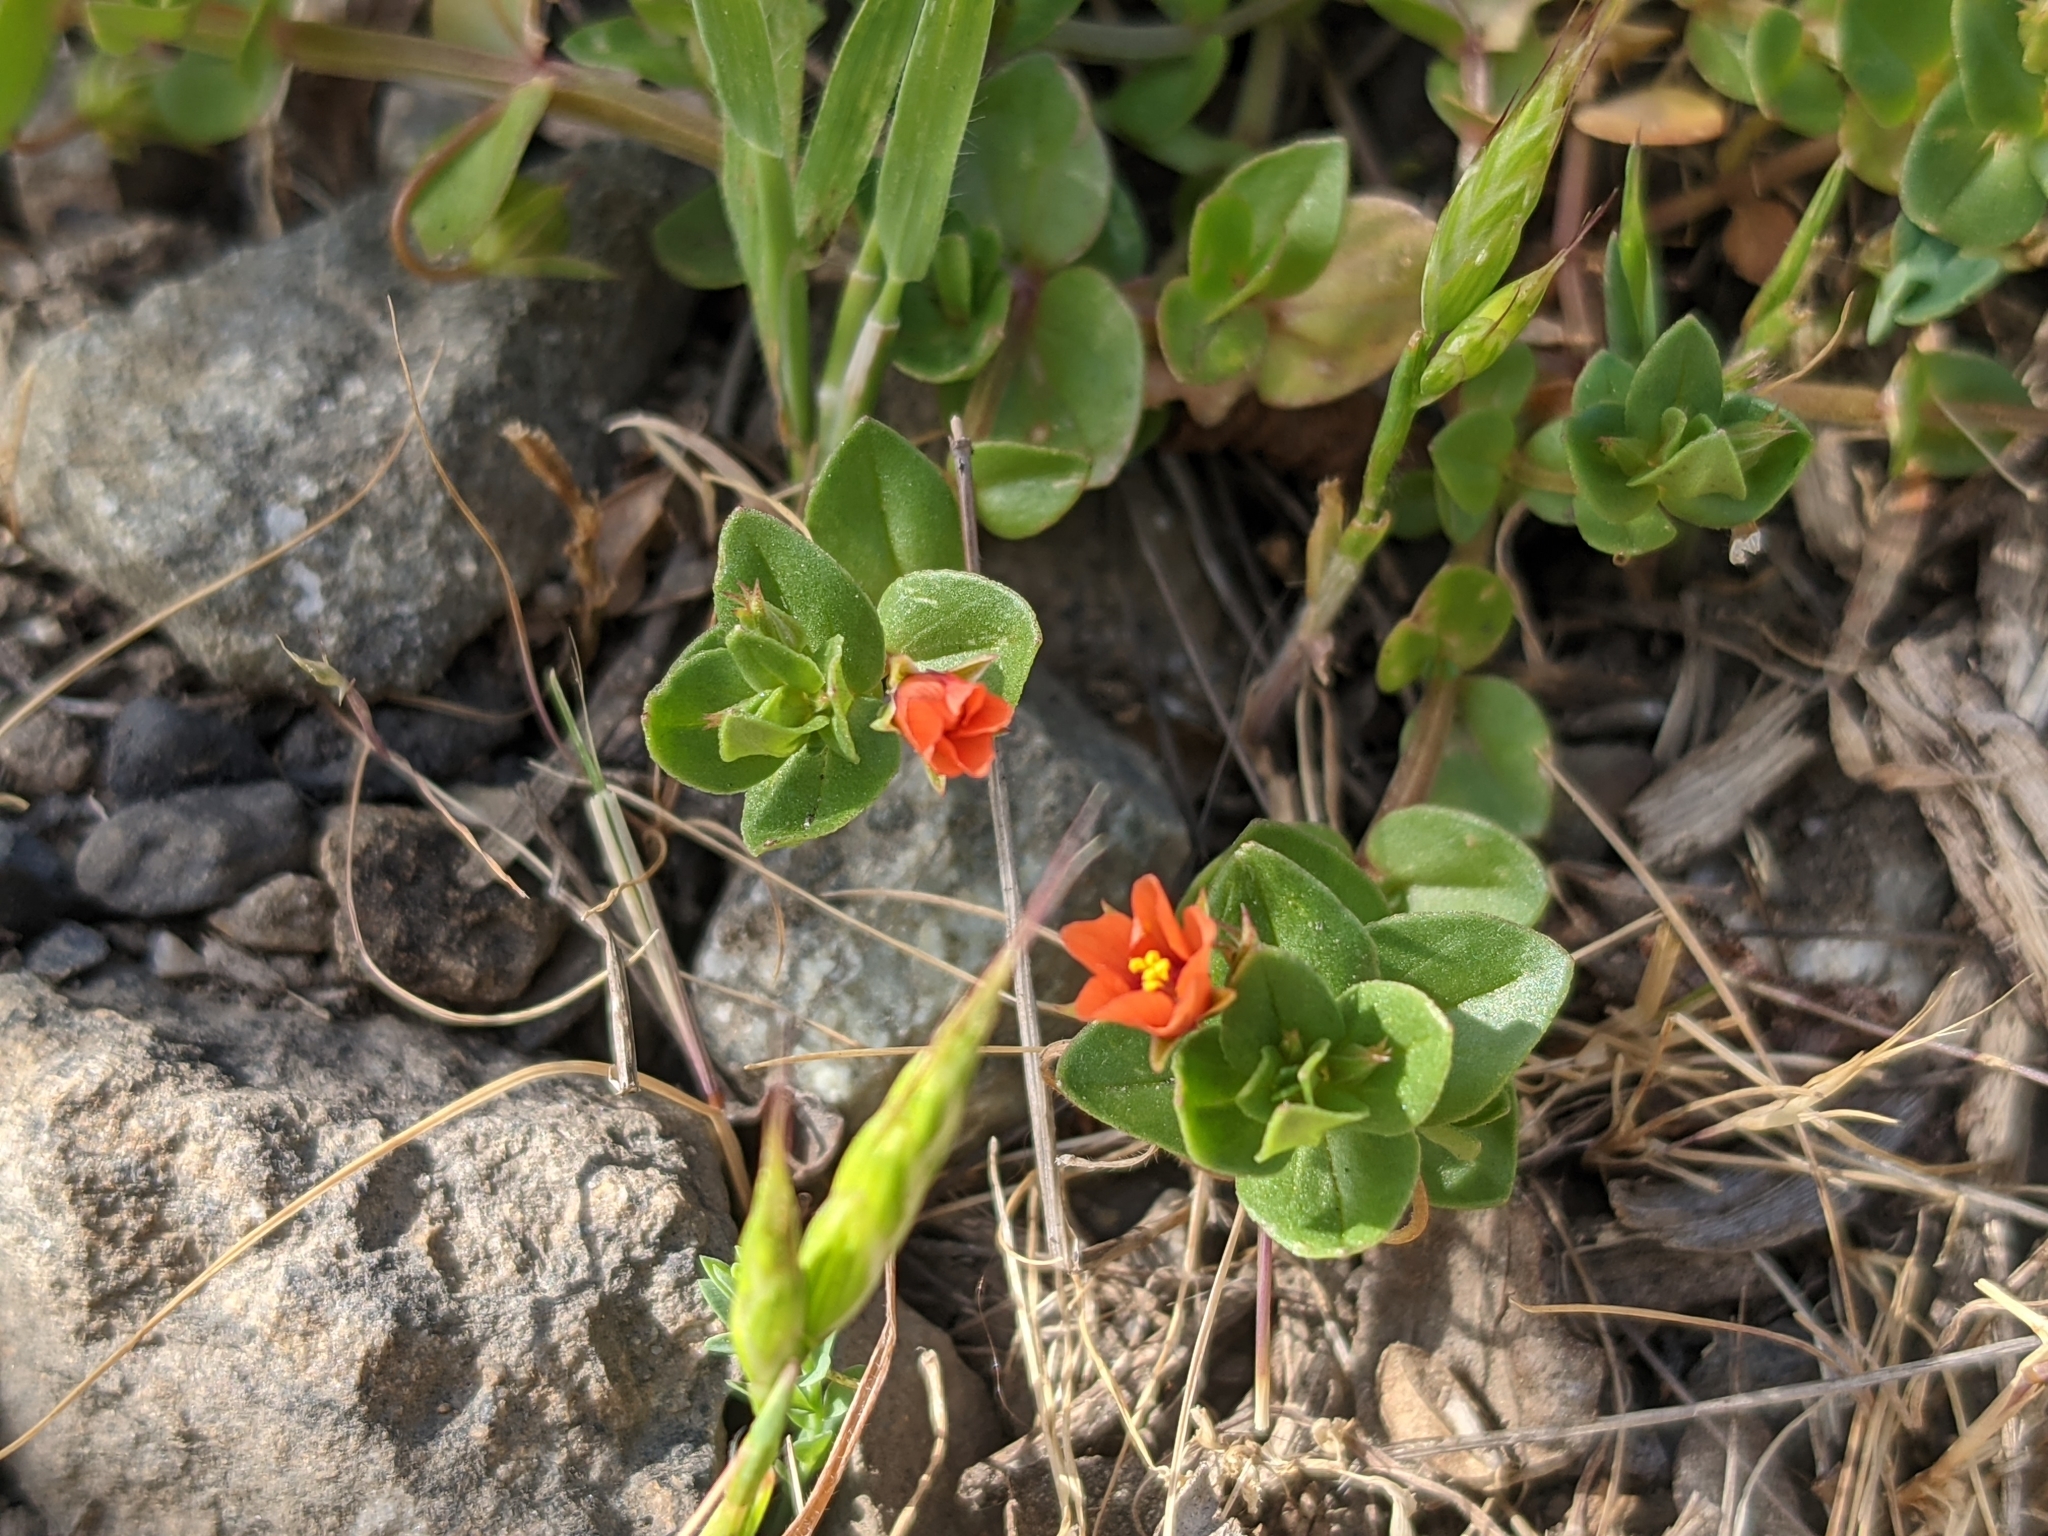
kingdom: Plantae
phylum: Tracheophyta
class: Magnoliopsida
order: Ericales
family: Primulaceae
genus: Lysimachia
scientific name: Lysimachia arvensis
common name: Scarlet pimpernel
